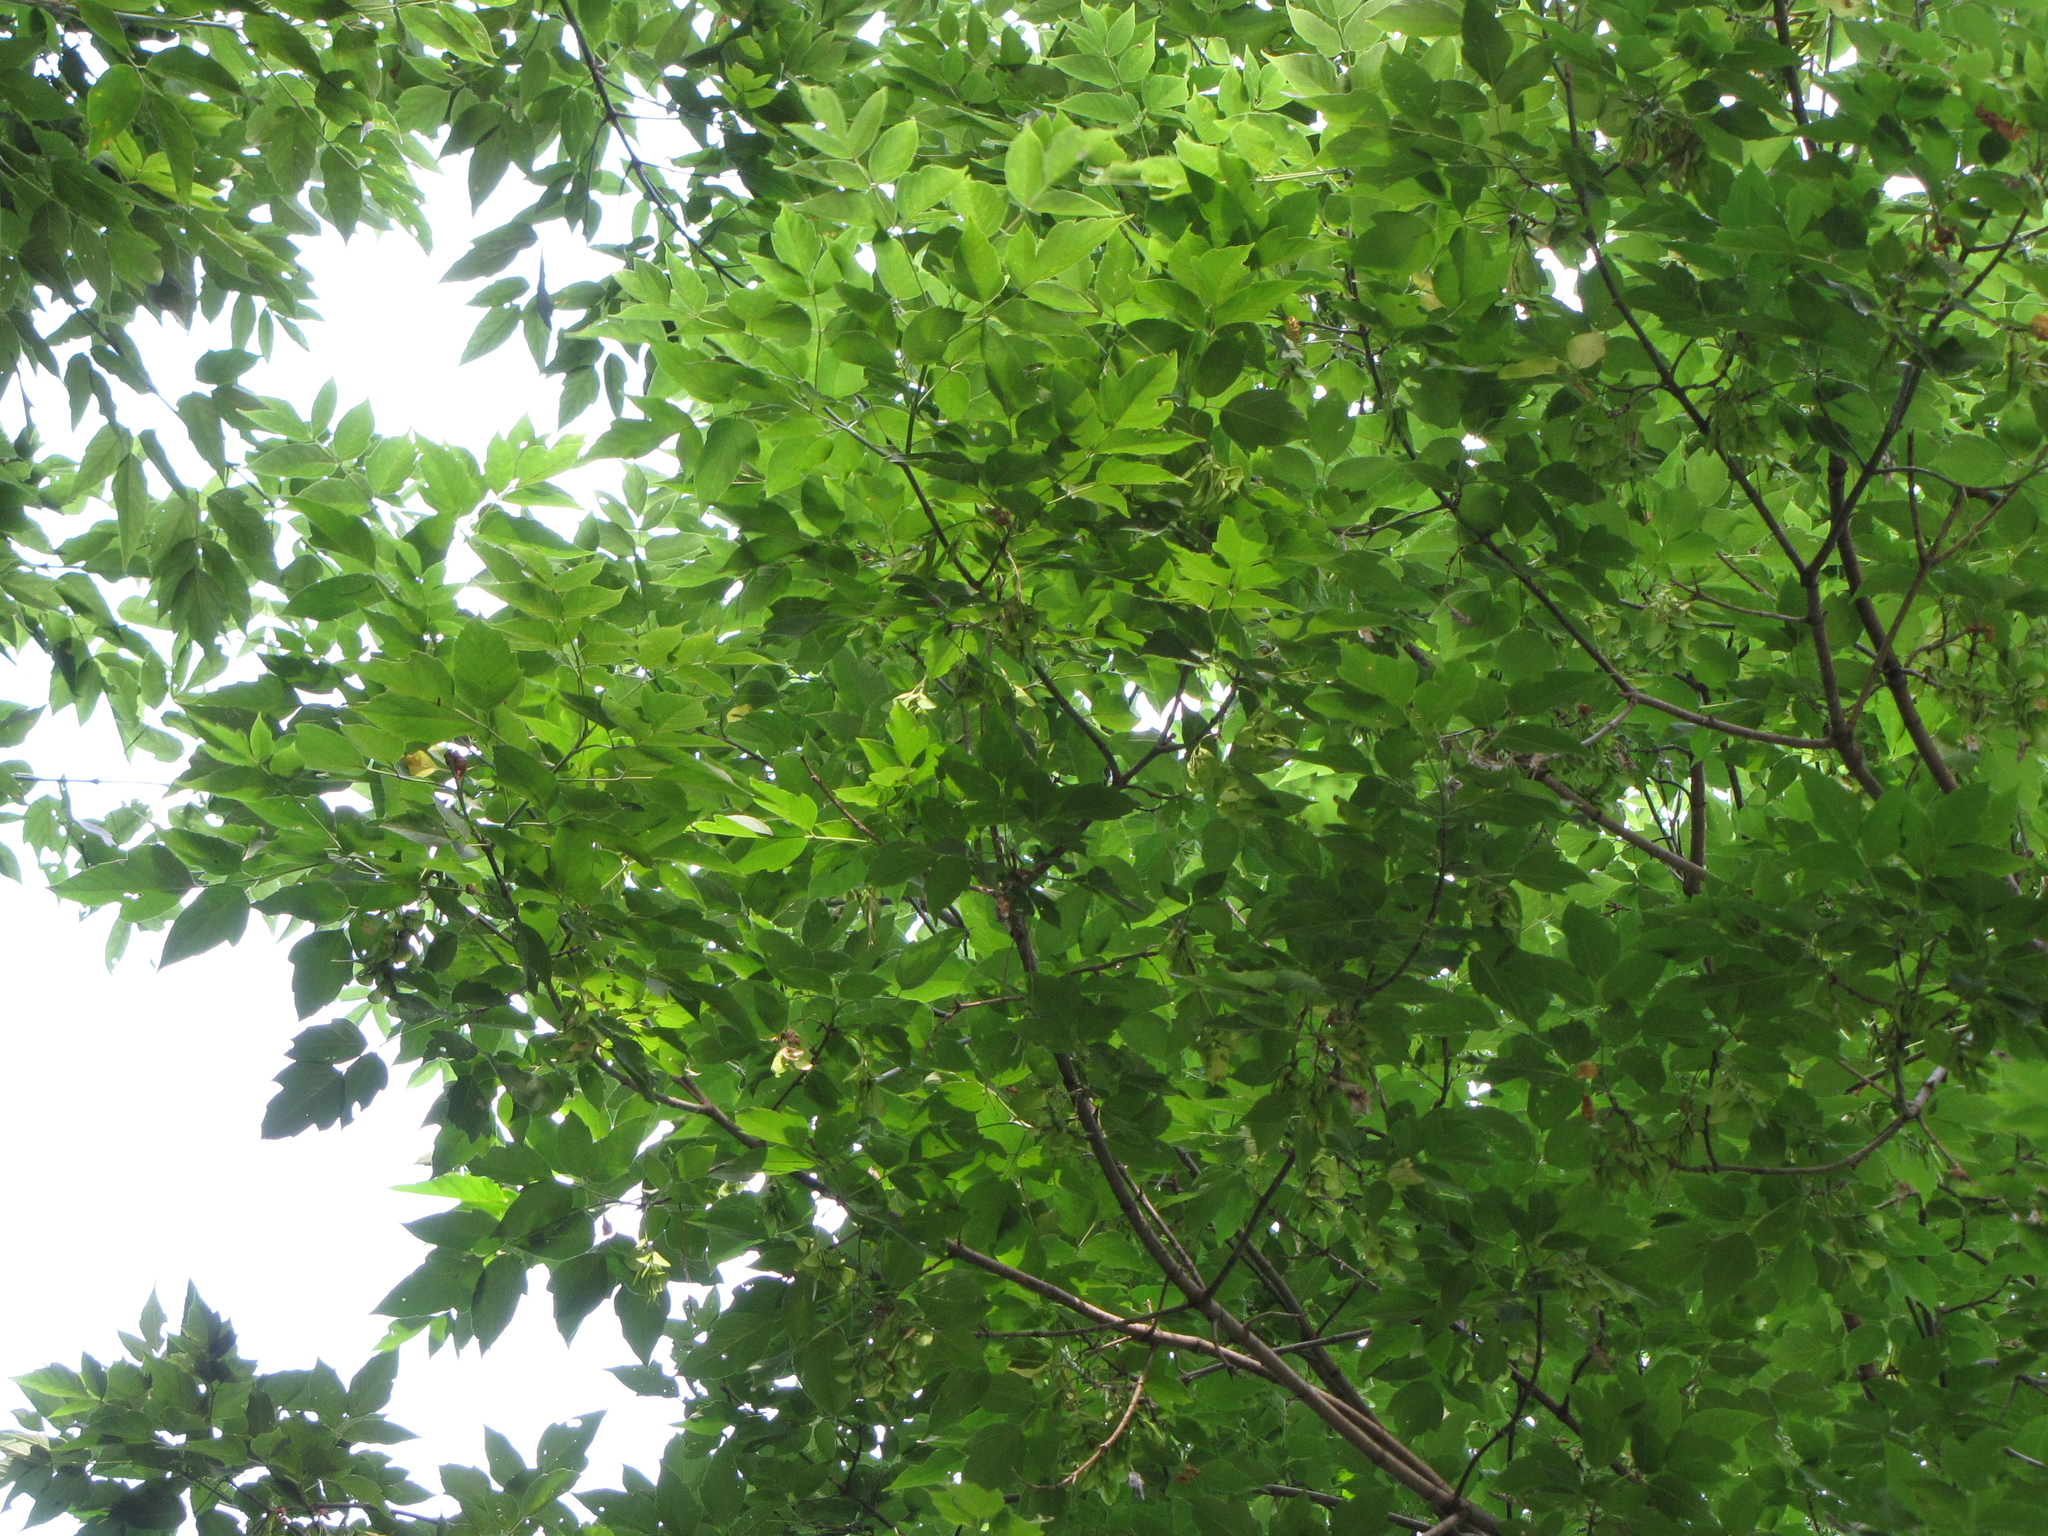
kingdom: Plantae
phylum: Tracheophyta
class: Magnoliopsida
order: Sapindales
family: Sapindaceae
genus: Acer
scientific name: Acer negundo
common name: Ashleaf maple
